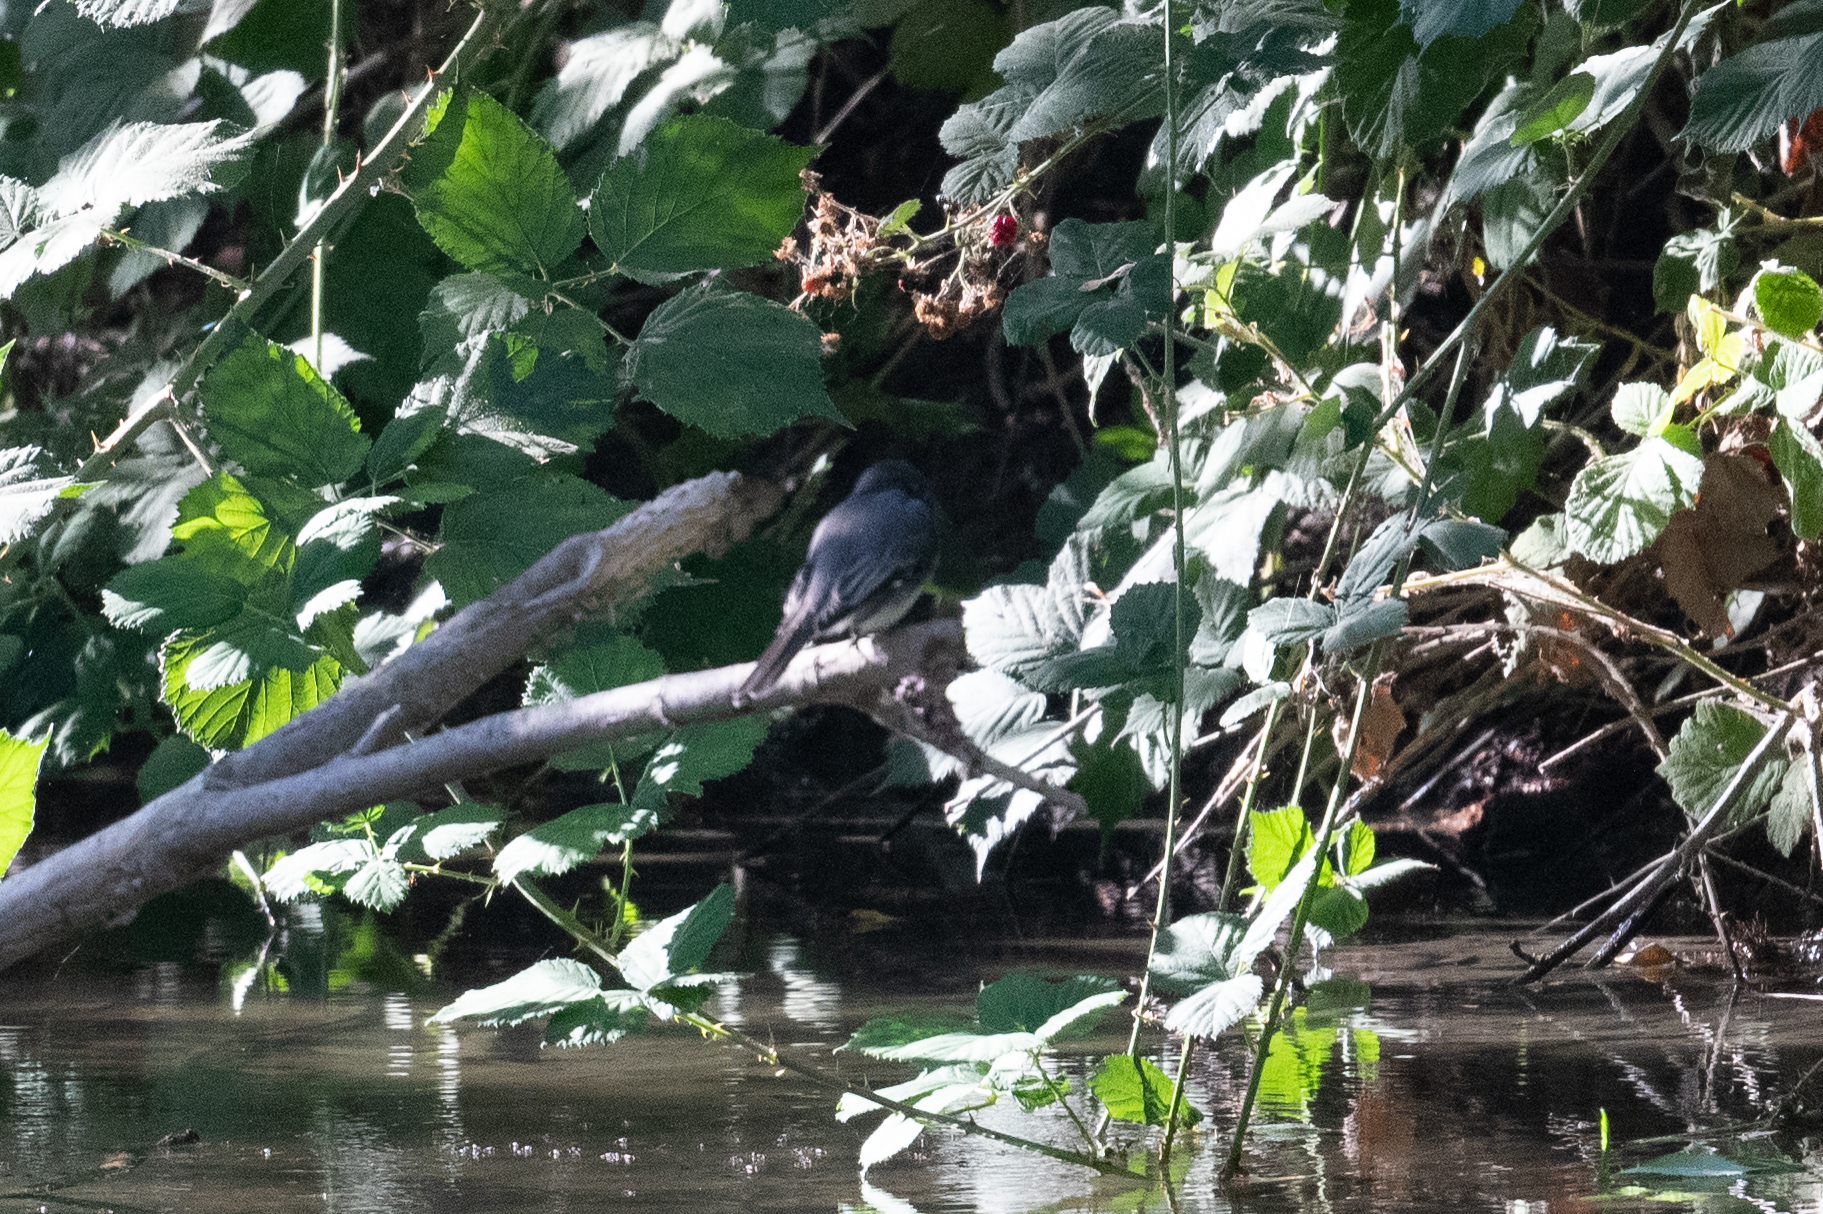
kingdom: Animalia
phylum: Chordata
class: Aves
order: Passeriformes
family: Tyrannidae
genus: Sayornis
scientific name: Sayornis nigricans
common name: Black phoebe
